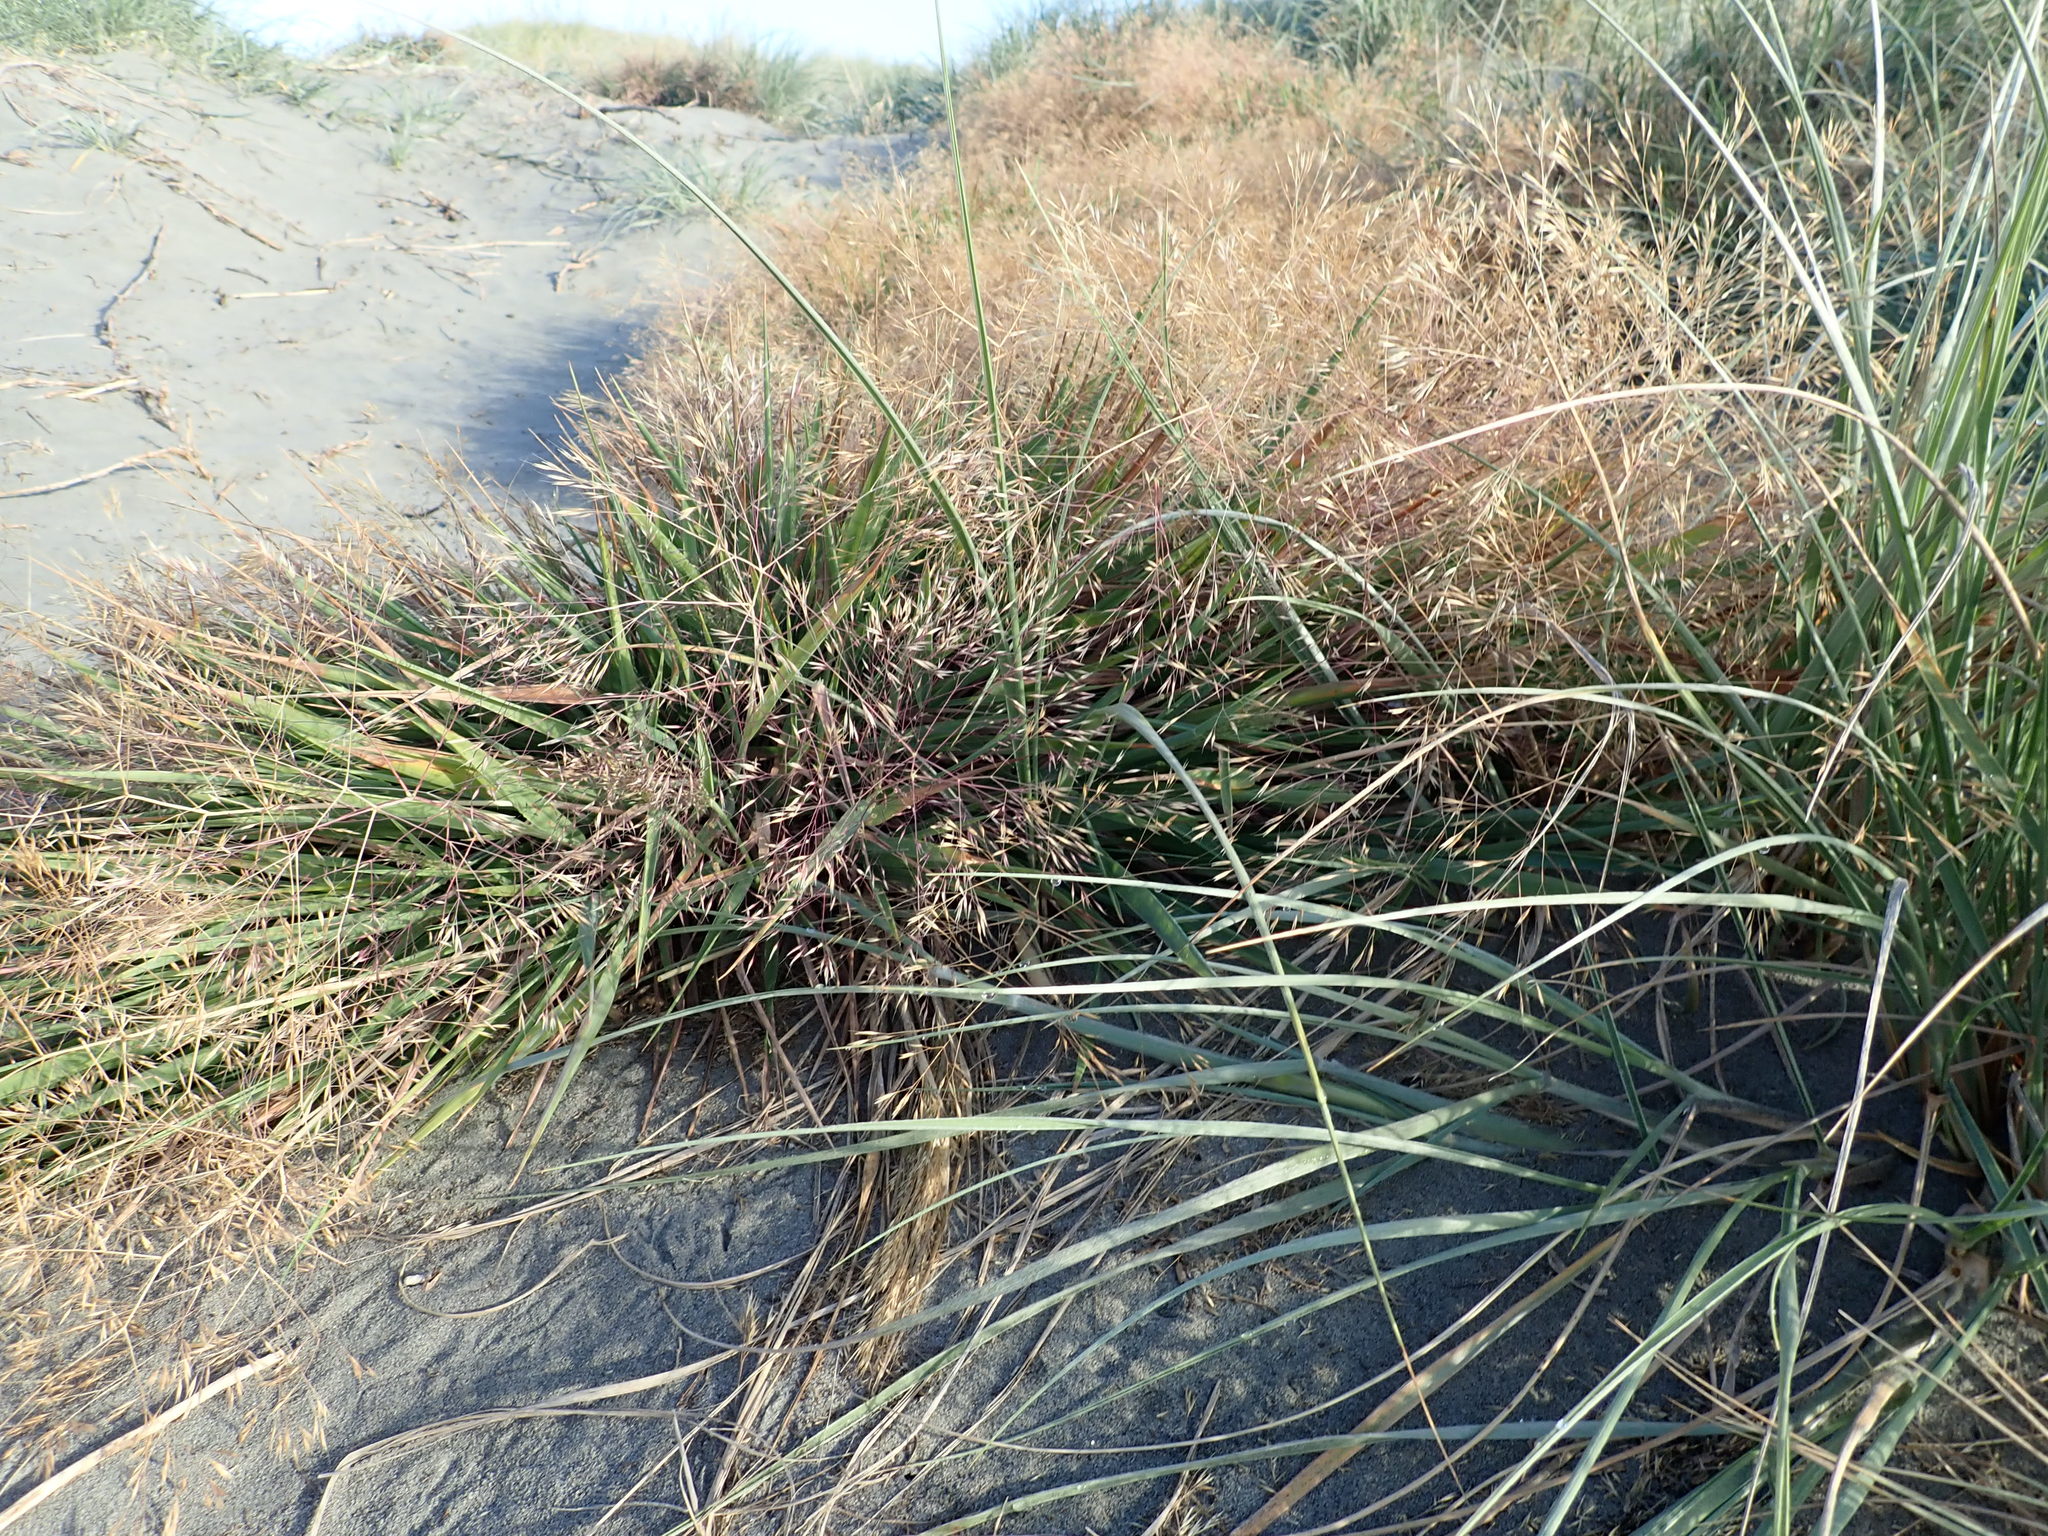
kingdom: Plantae
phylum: Tracheophyta
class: Liliopsida
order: Poales
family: Poaceae
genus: Lachnagrostis
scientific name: Lachnagrostis billardierei
